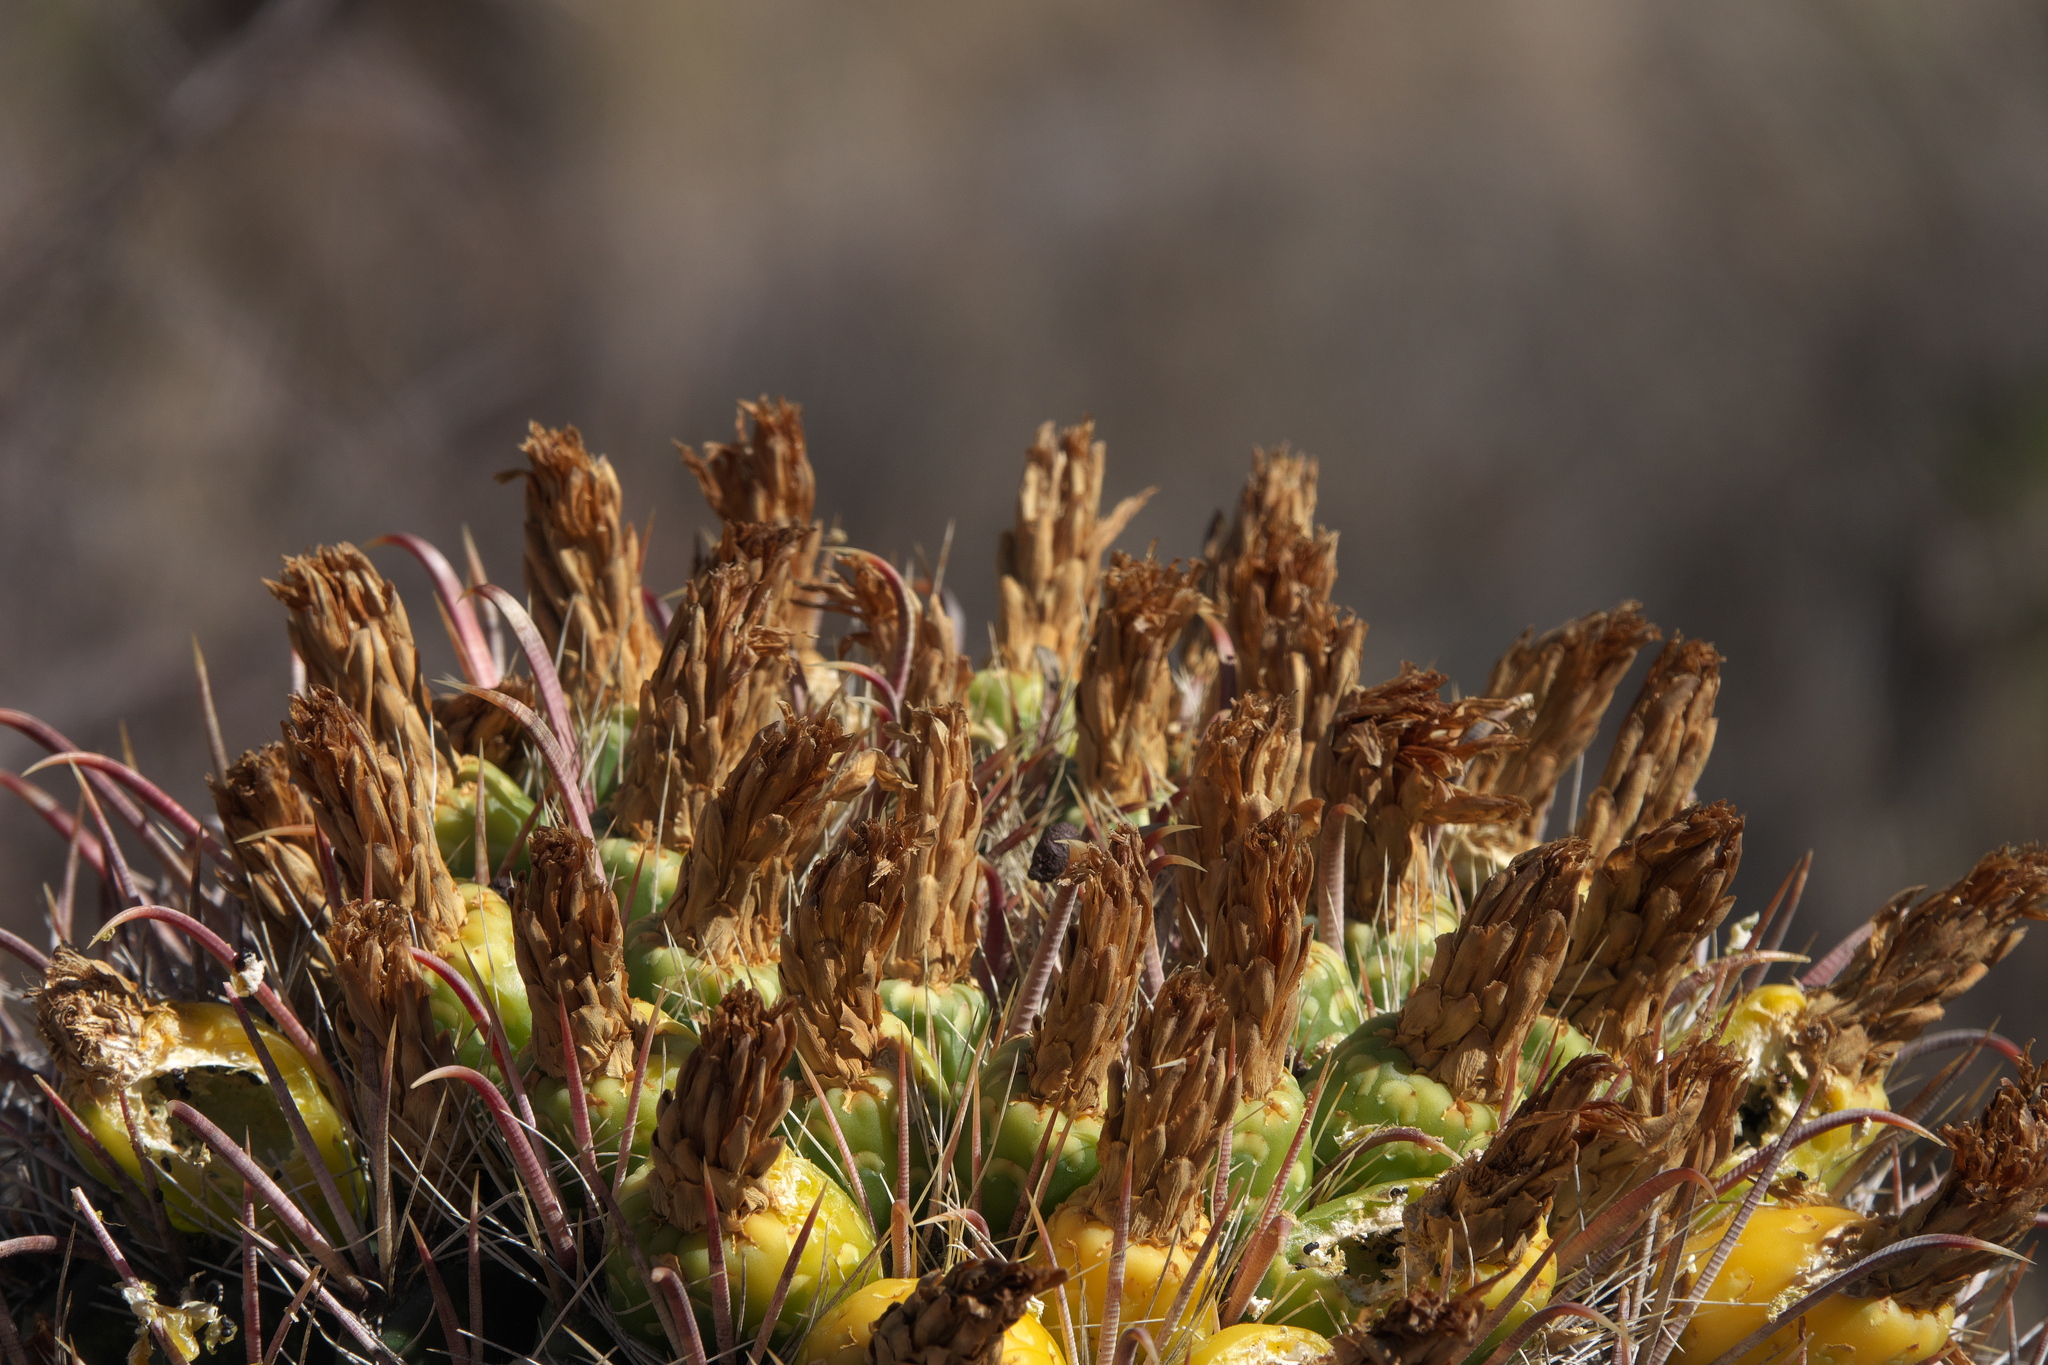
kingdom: Plantae
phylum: Tracheophyta
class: Magnoliopsida
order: Caryophyllales
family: Cactaceae
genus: Ferocactus
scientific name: Ferocactus wislizeni
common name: Candy barrel cactus
